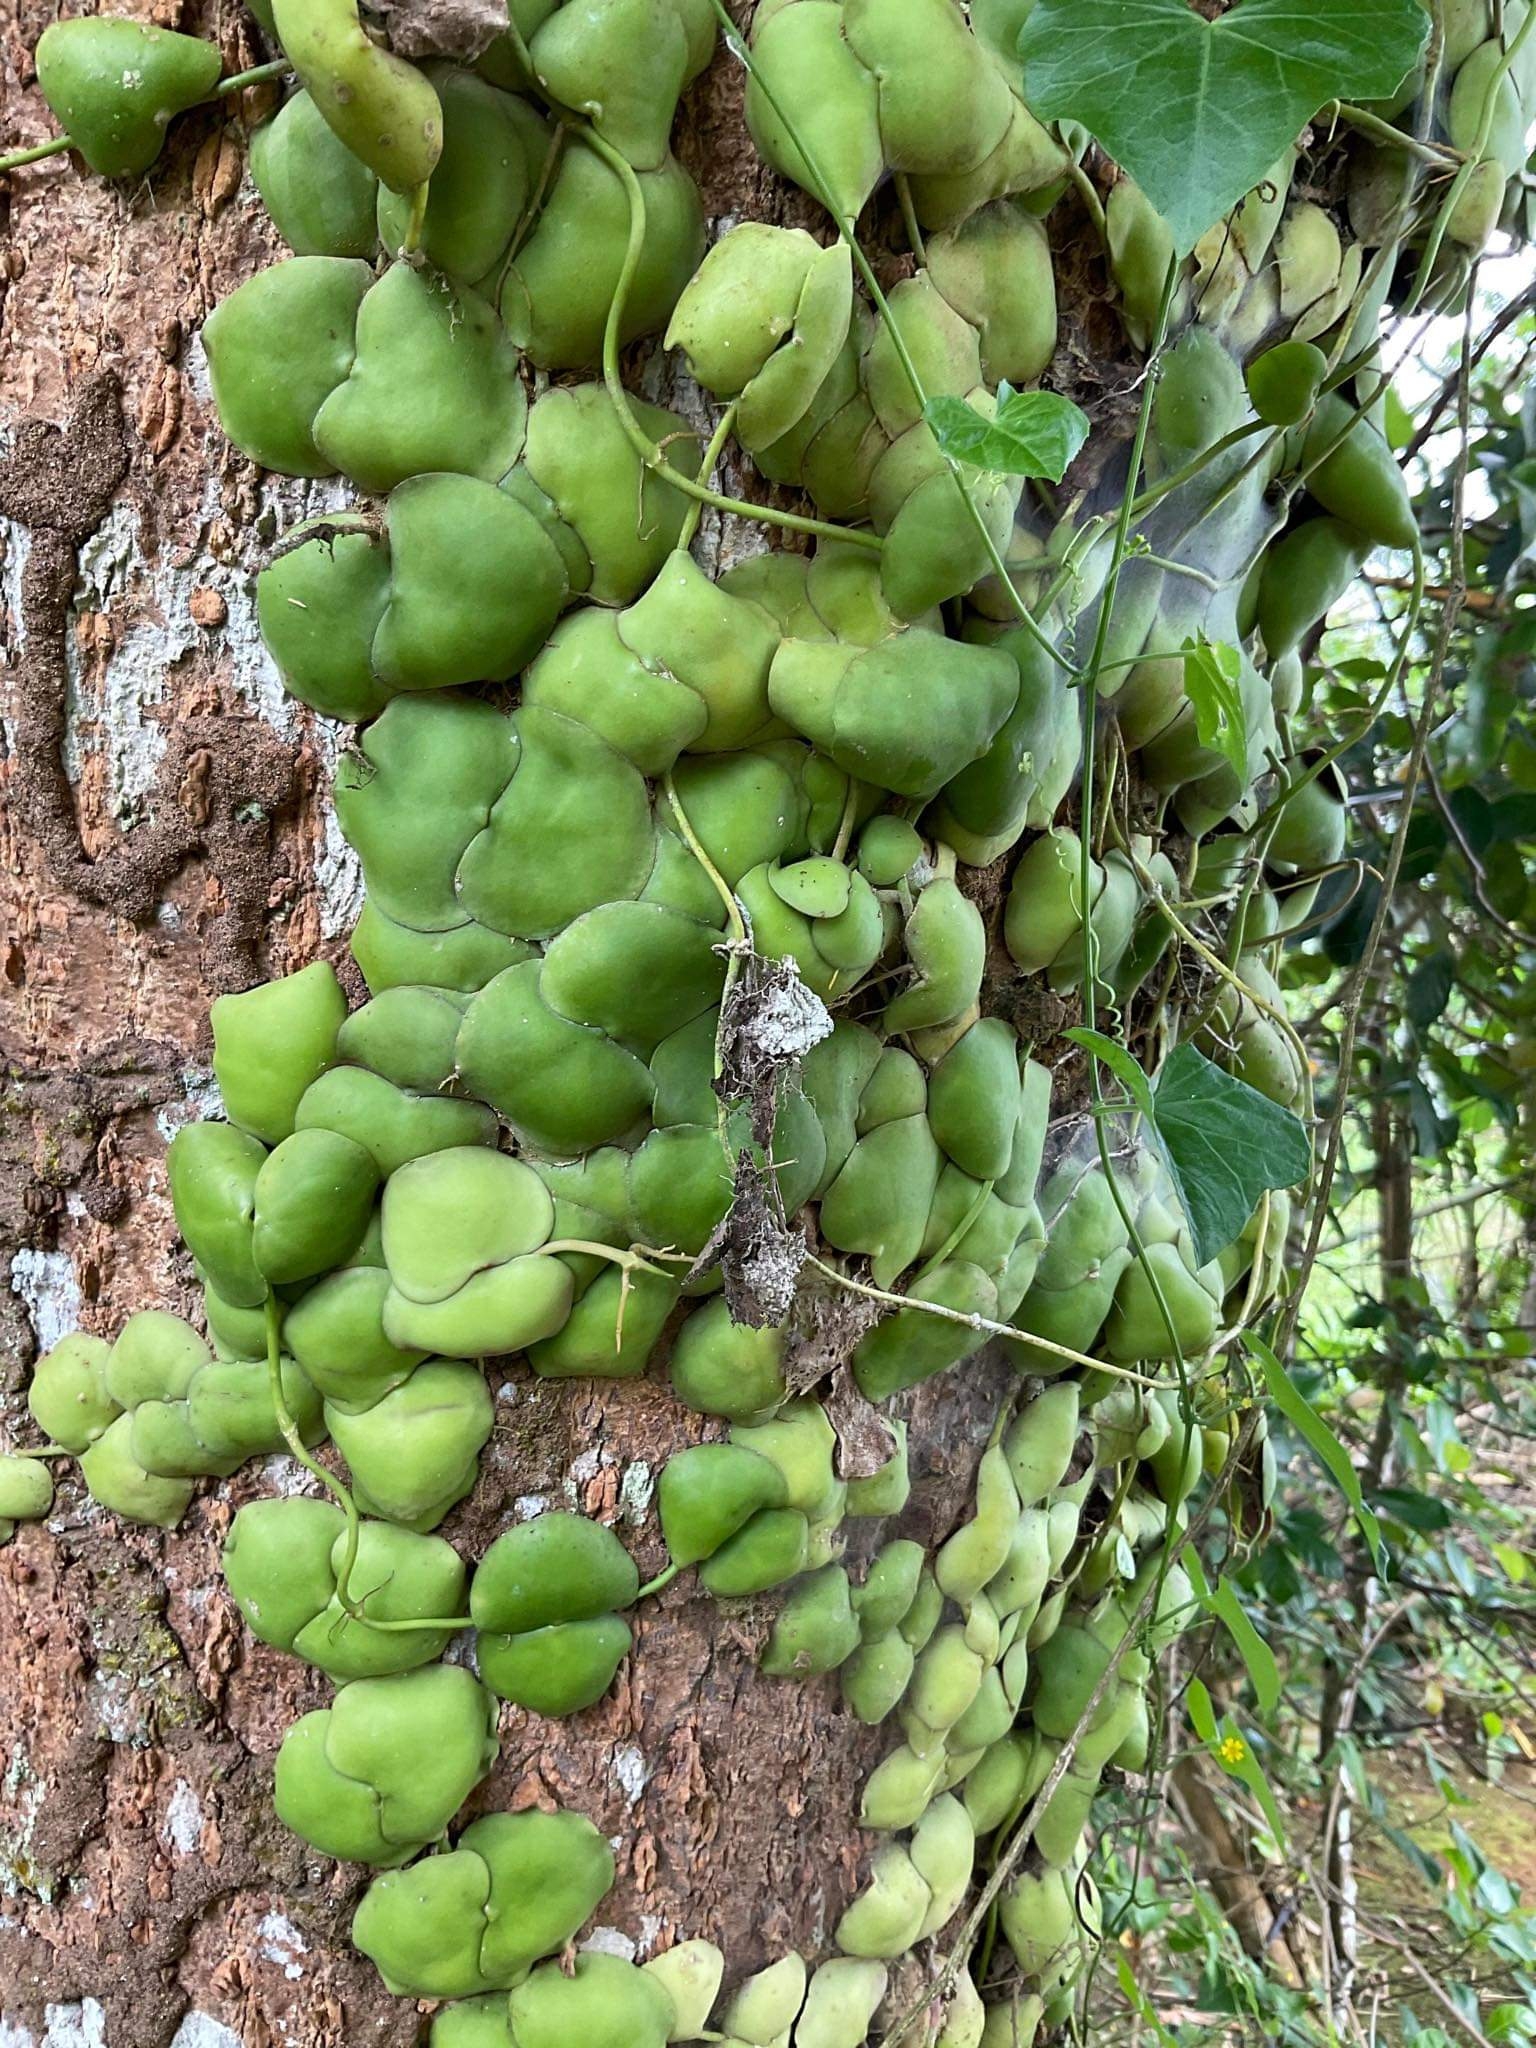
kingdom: Plantae
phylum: Tracheophyta
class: Magnoliopsida
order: Gentianales
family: Apocynaceae
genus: Dischidia
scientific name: Dischidia platyphylla
